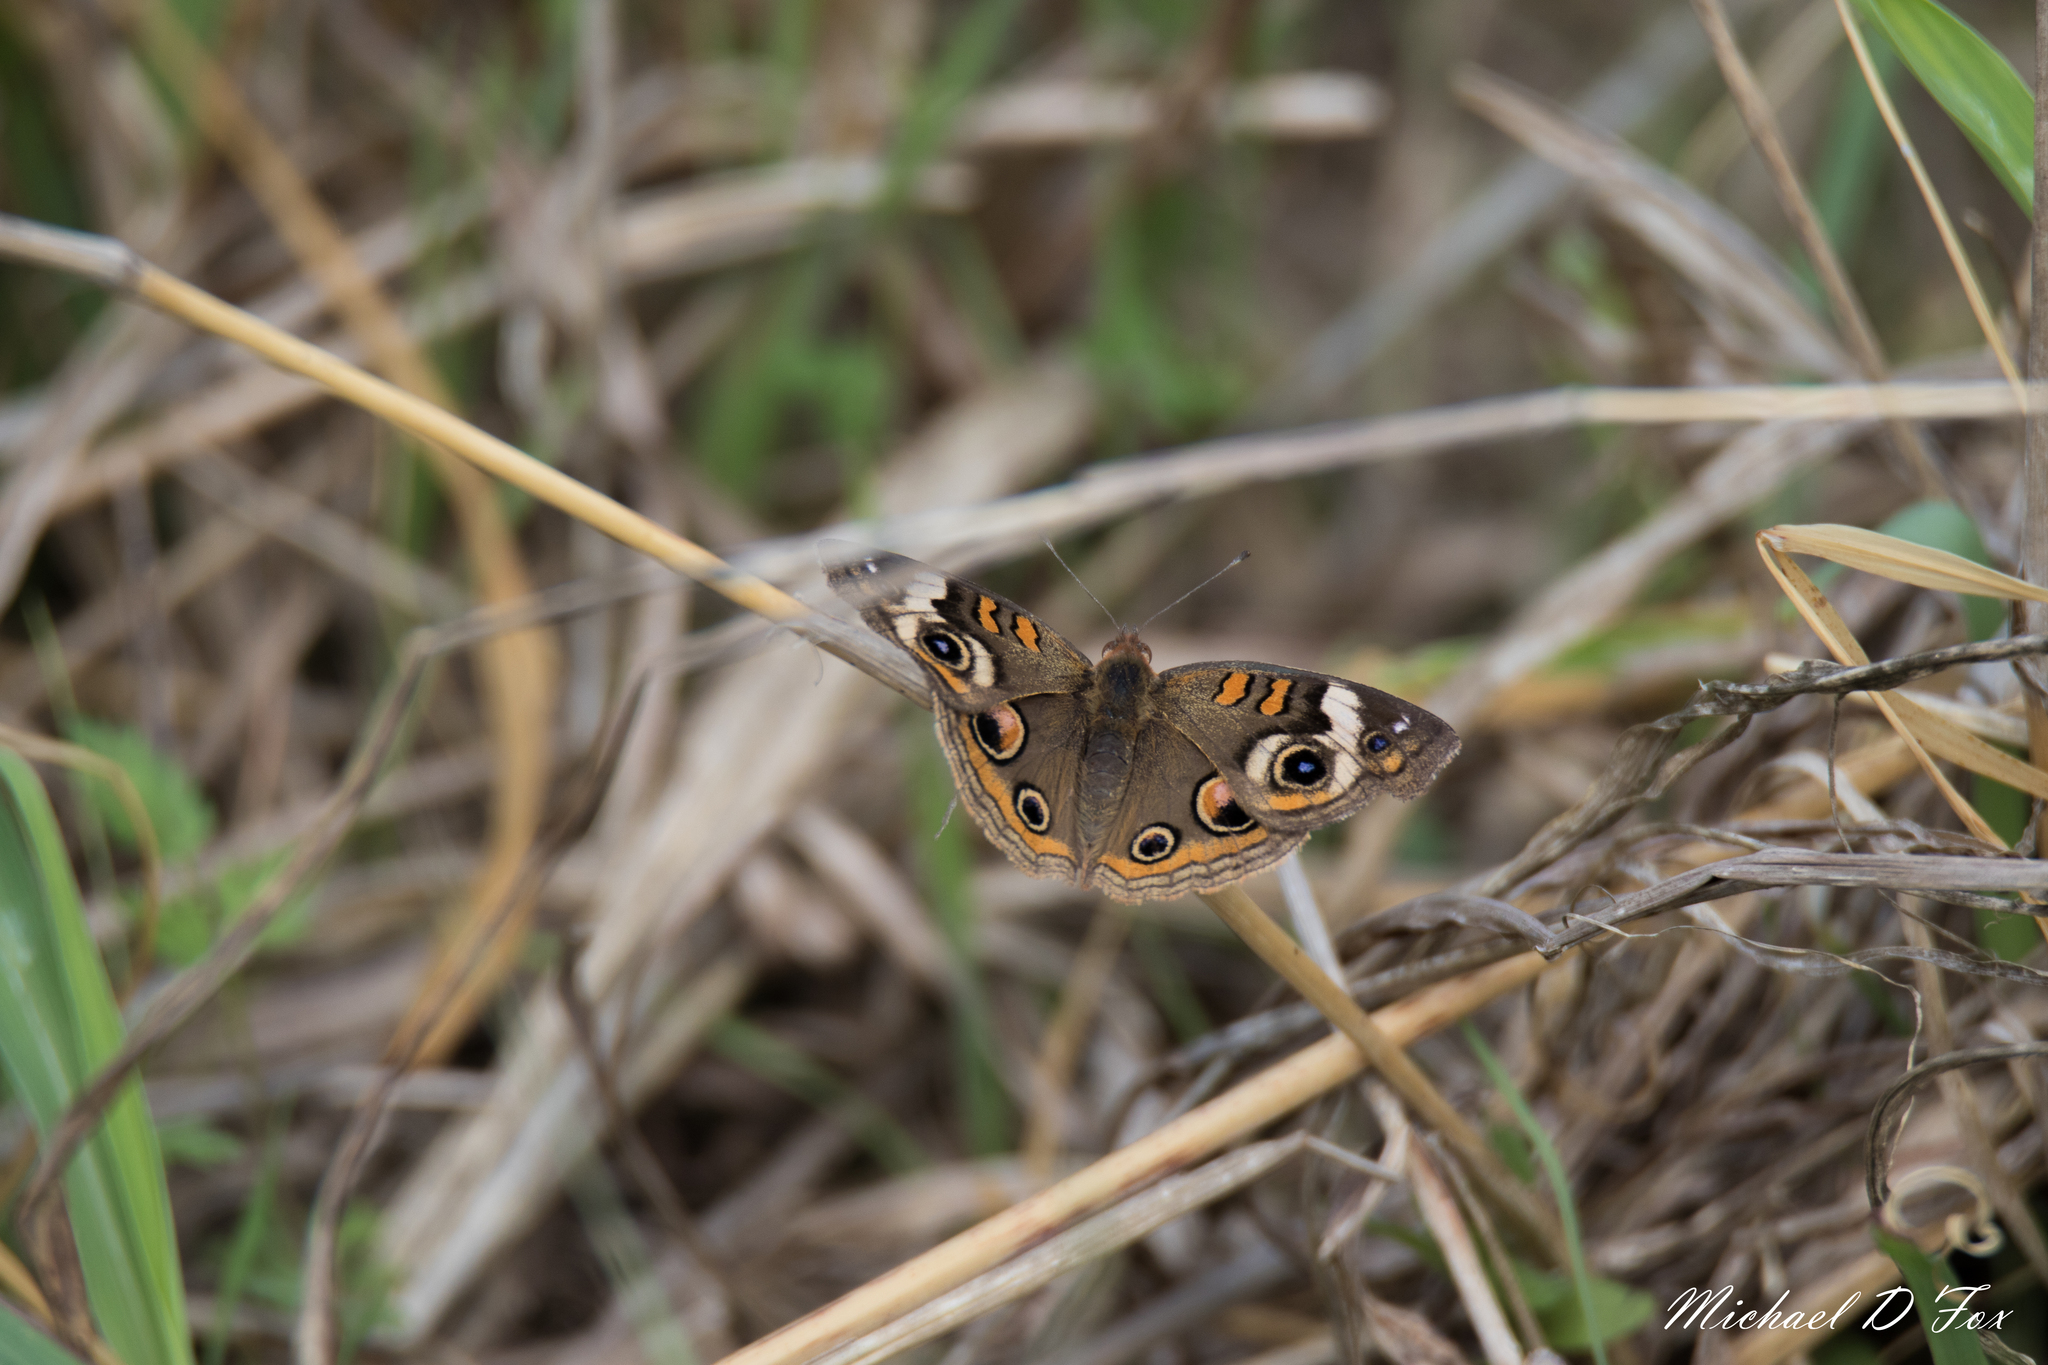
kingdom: Animalia
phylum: Arthropoda
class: Insecta
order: Lepidoptera
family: Nymphalidae
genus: Junonia
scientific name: Junonia coenia
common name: Common buckeye
